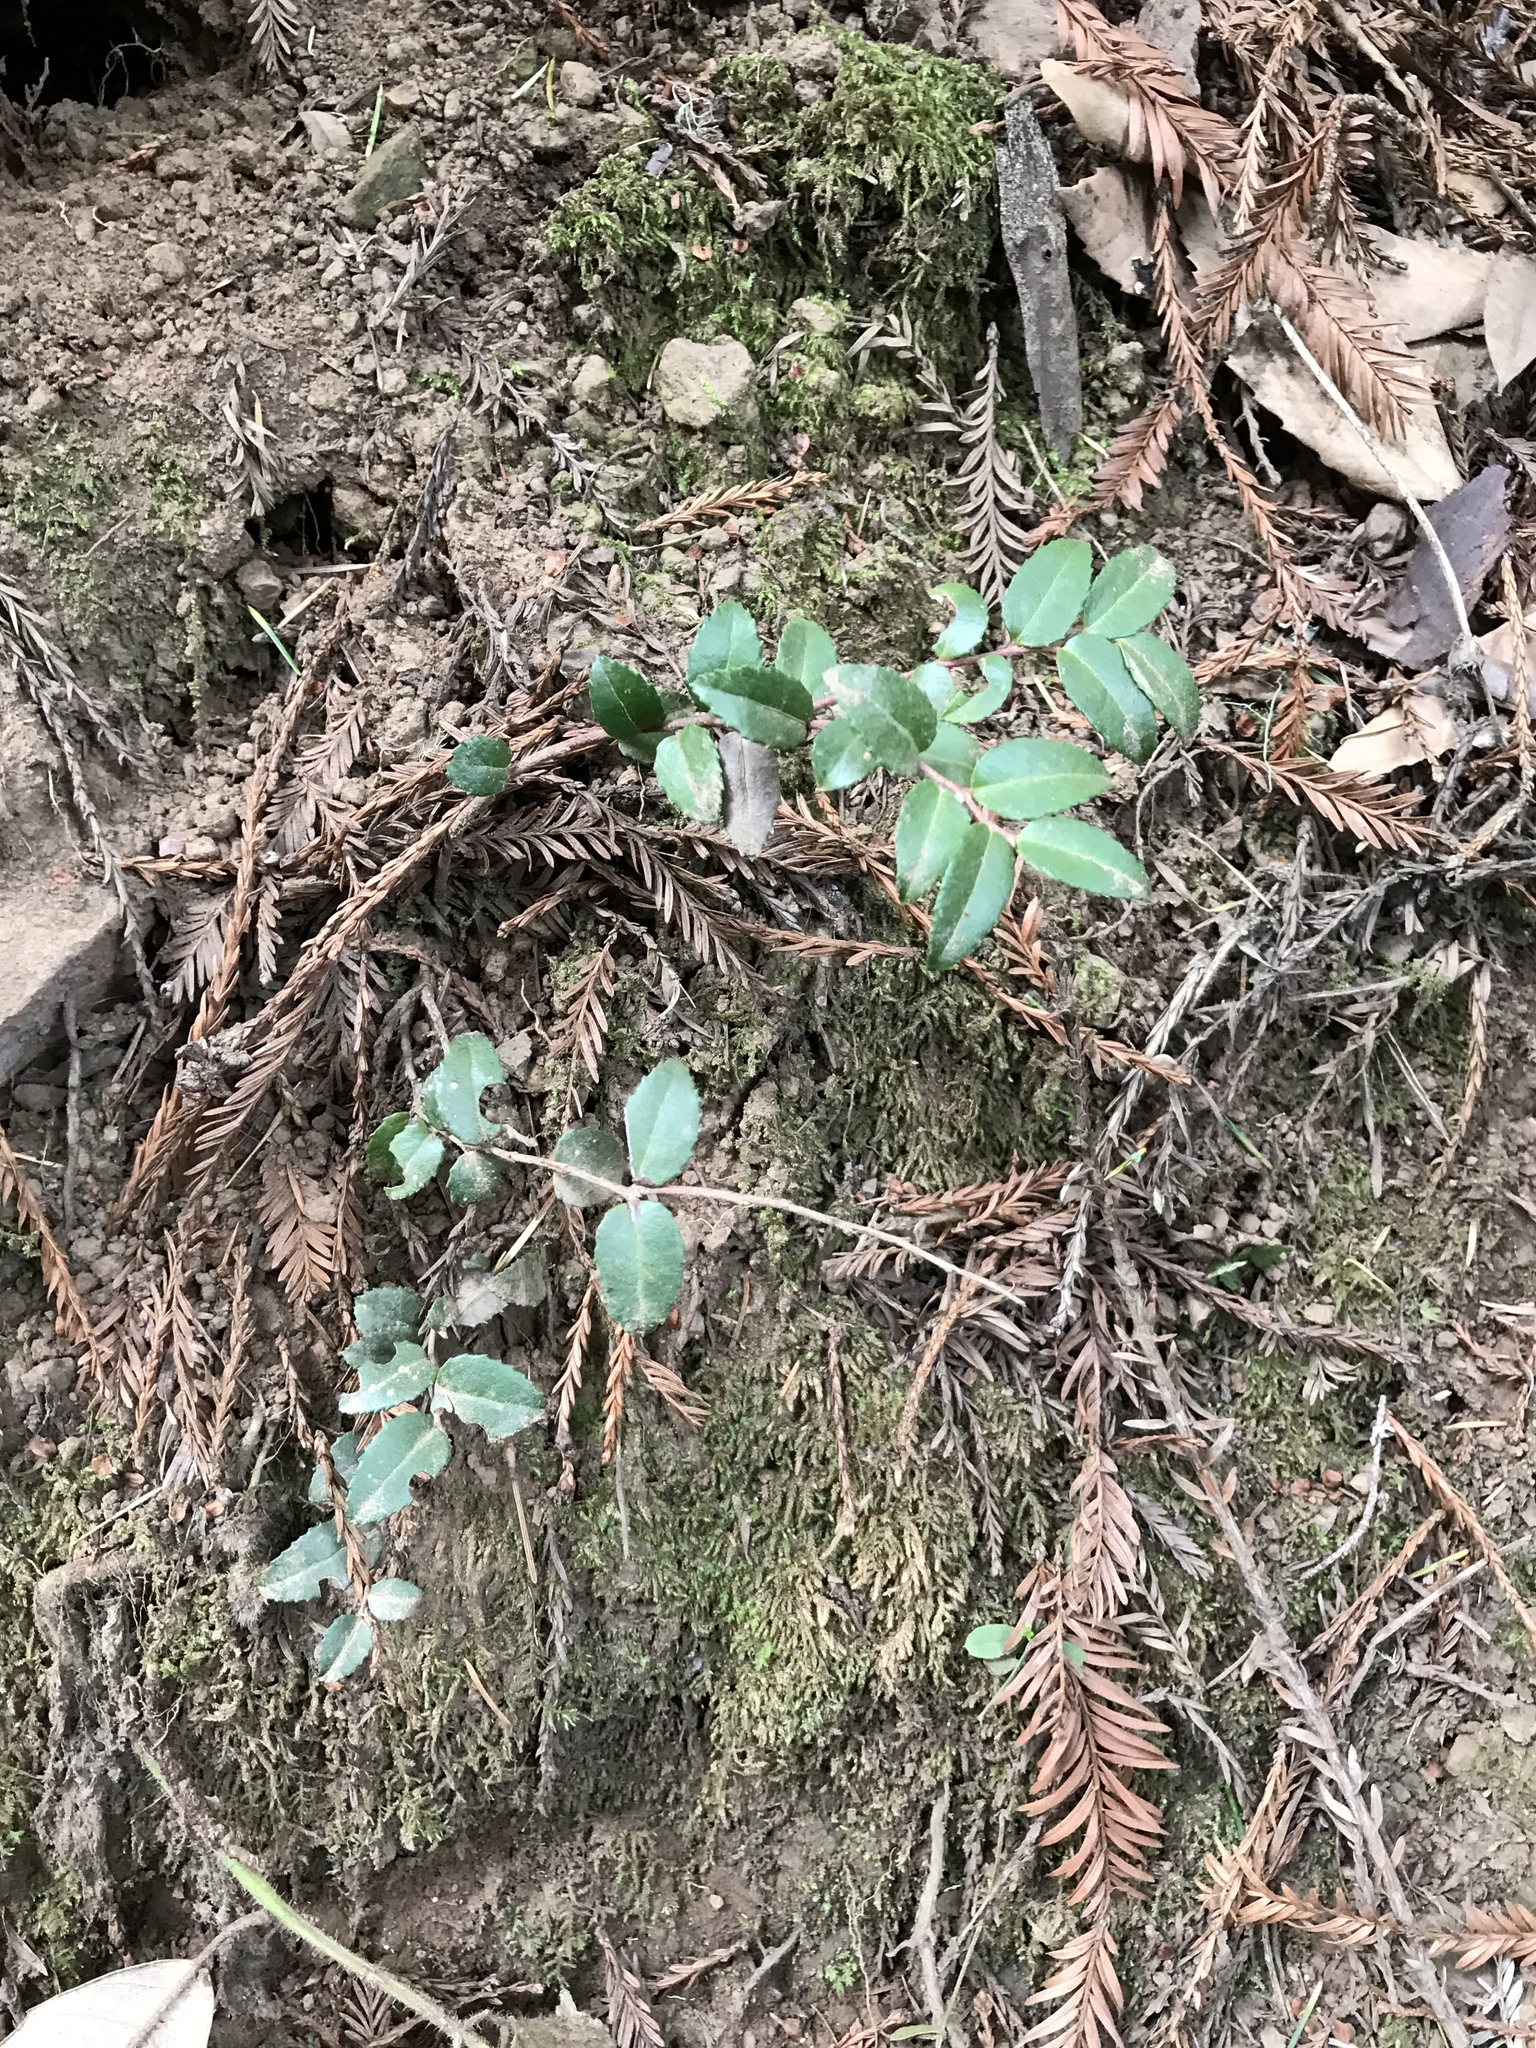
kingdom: Plantae
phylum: Tracheophyta
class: Magnoliopsida
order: Ericales
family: Ericaceae
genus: Vaccinium
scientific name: Vaccinium ovatum
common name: California-huckleberry
